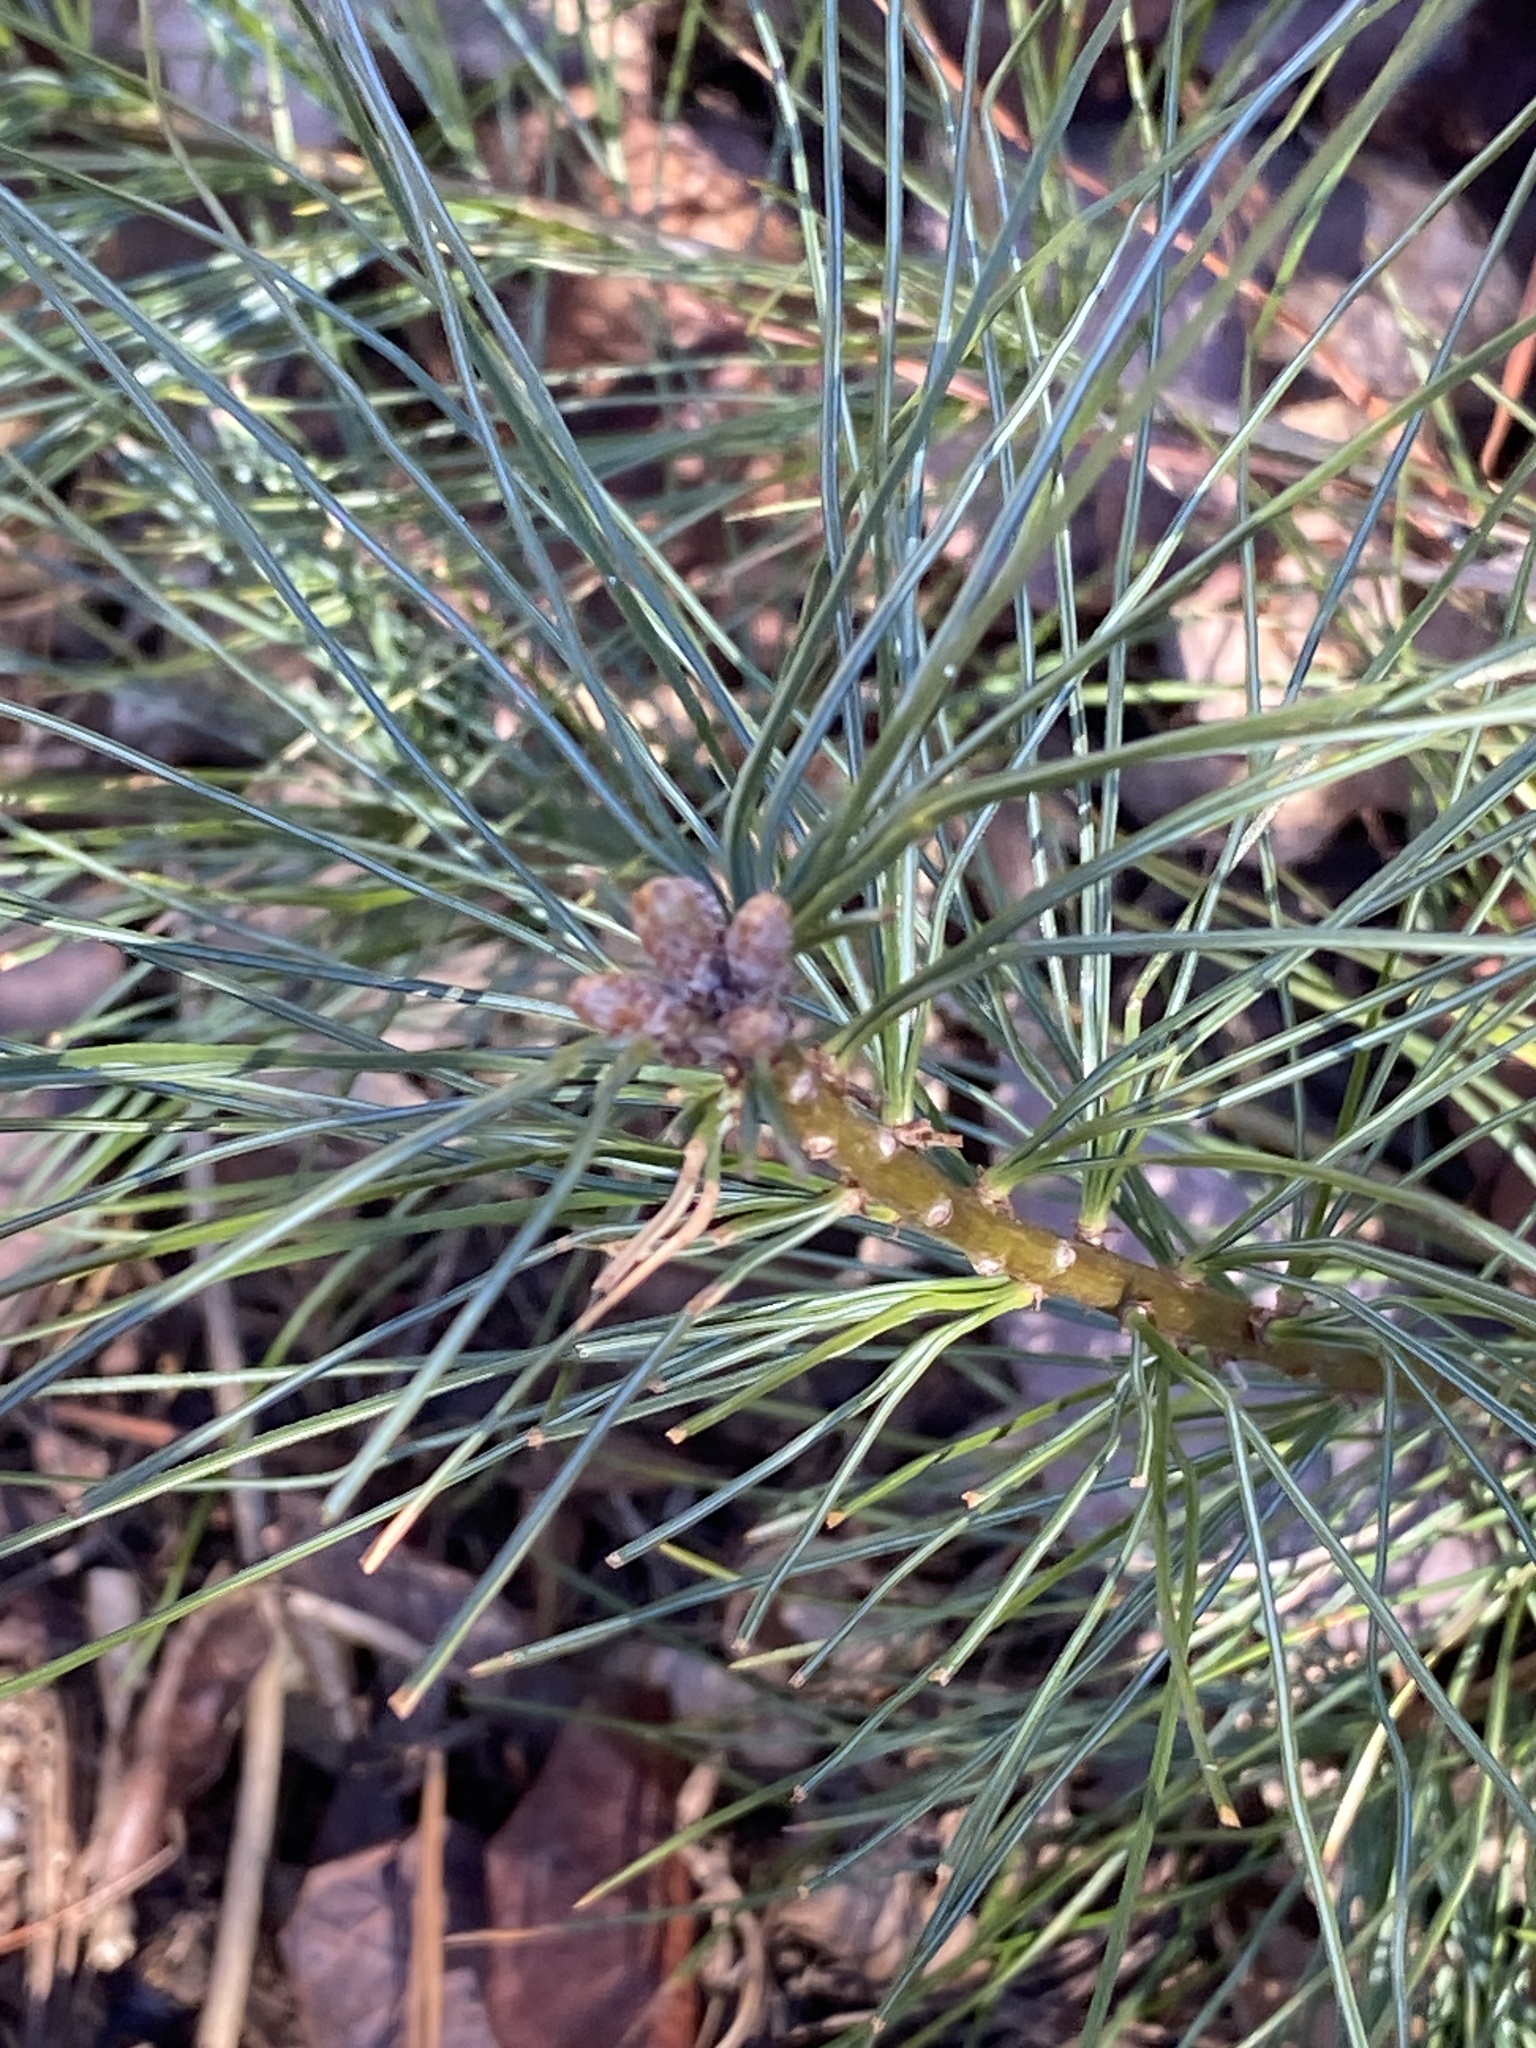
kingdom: Plantae
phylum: Tracheophyta
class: Pinopsida
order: Pinales
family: Pinaceae
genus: Pinus
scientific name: Pinus strobus
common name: Weymouth pine
